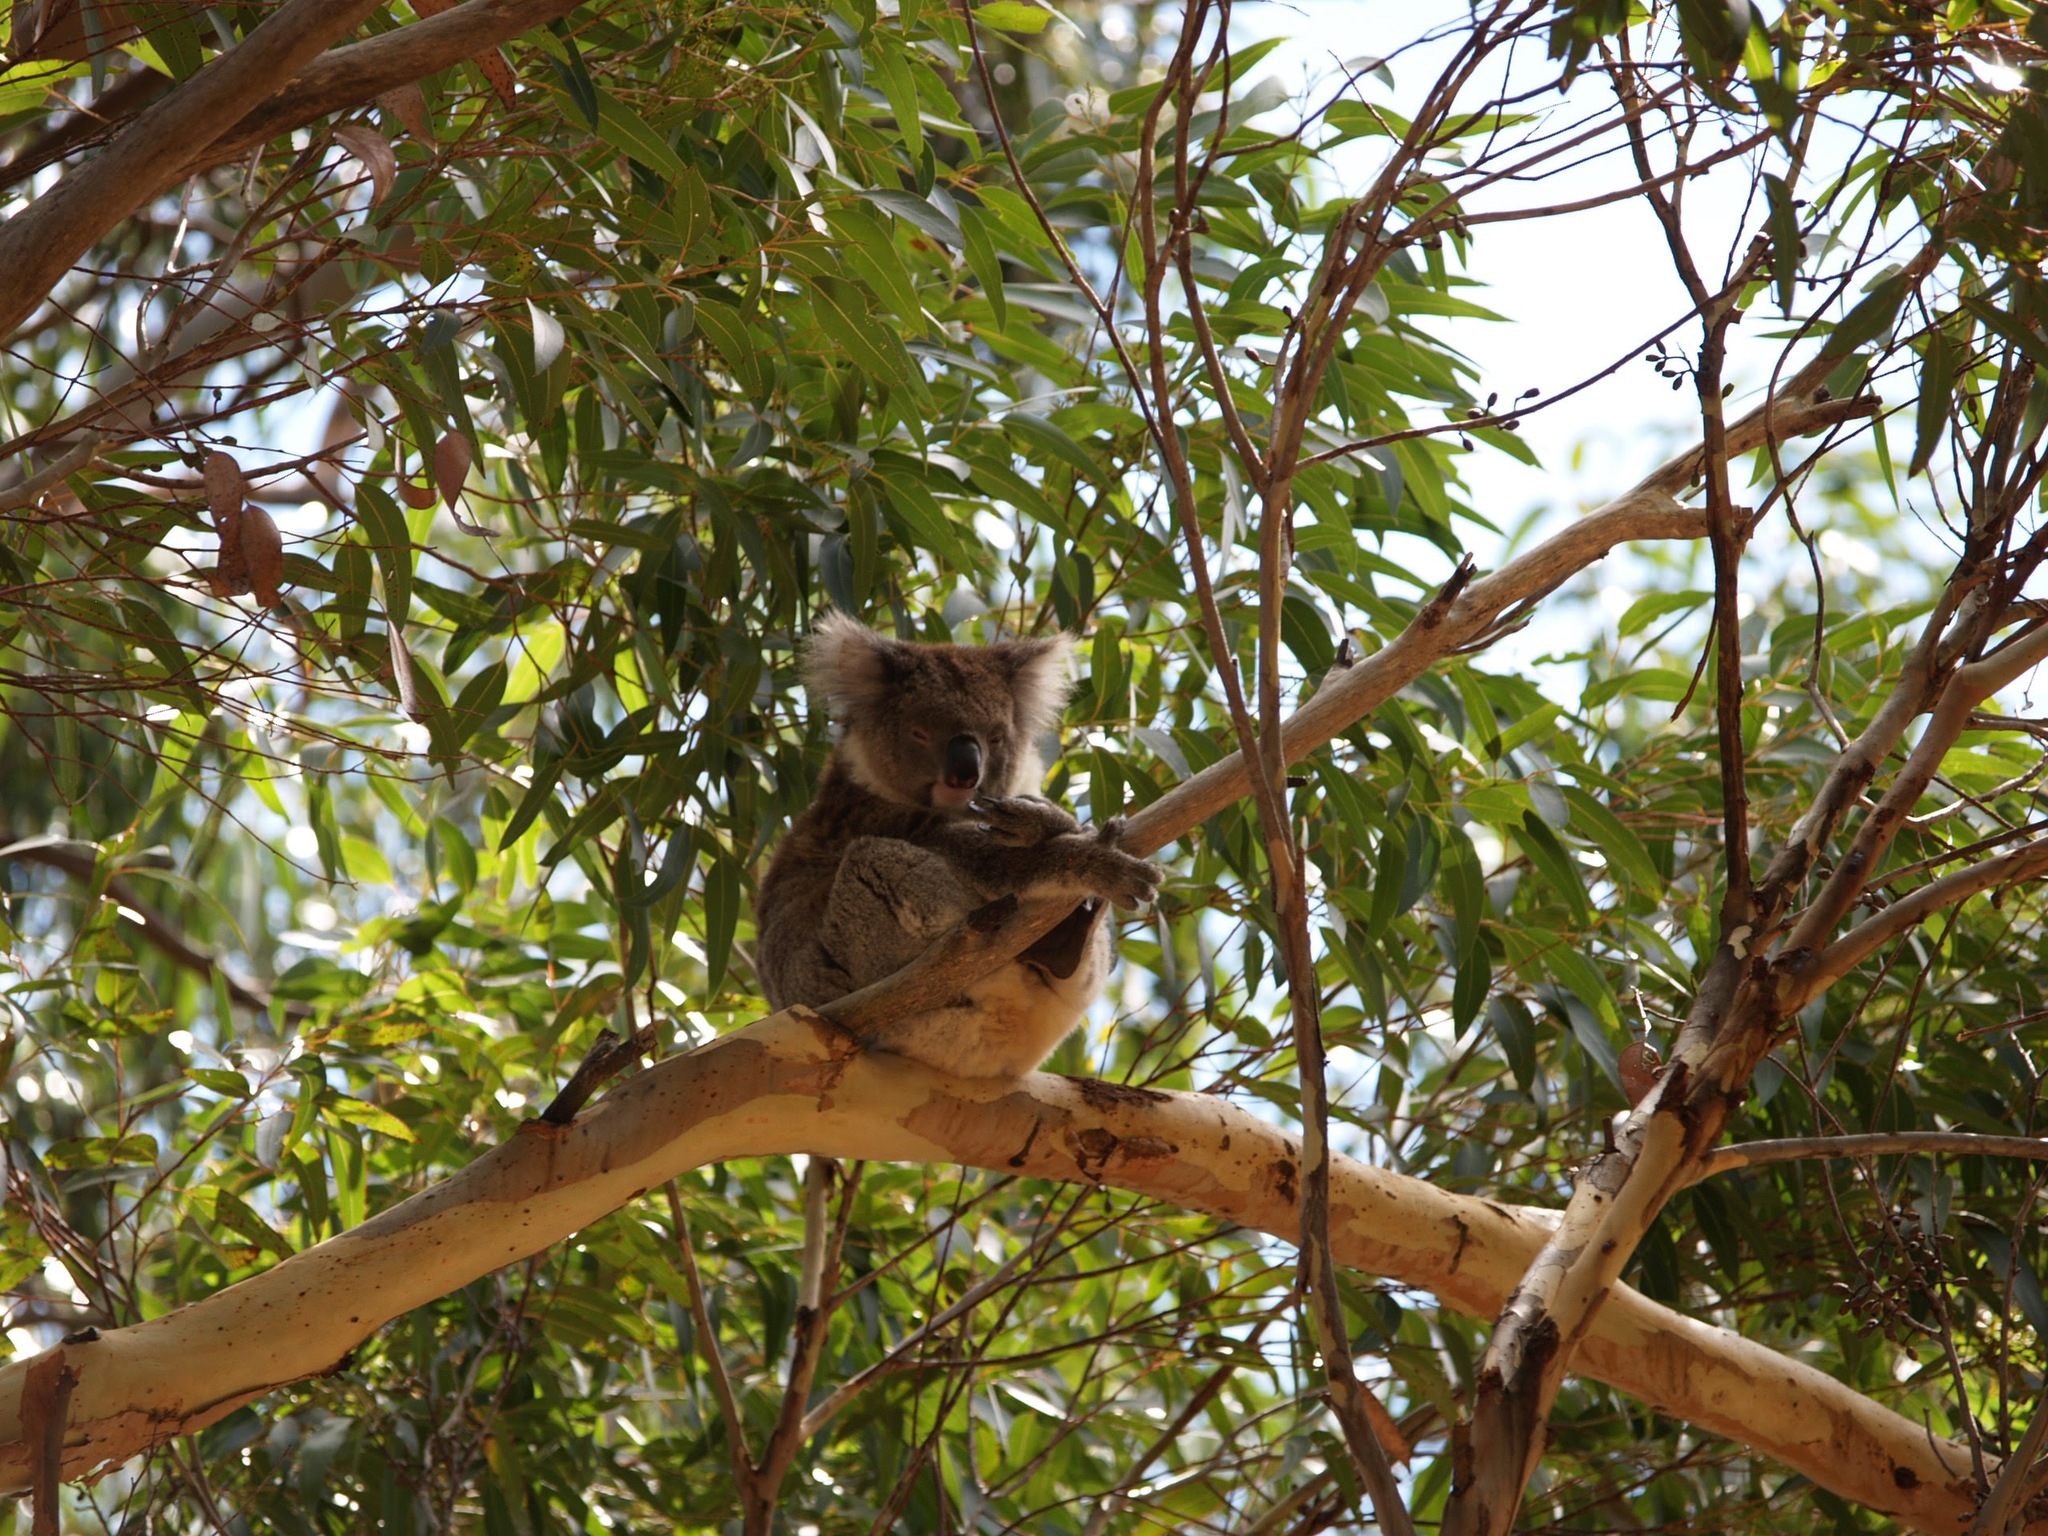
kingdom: Animalia
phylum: Chordata
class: Mammalia
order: Diprotodontia
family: Phascolarctidae
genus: Phascolarctos
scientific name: Phascolarctos cinereus
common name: Koala
